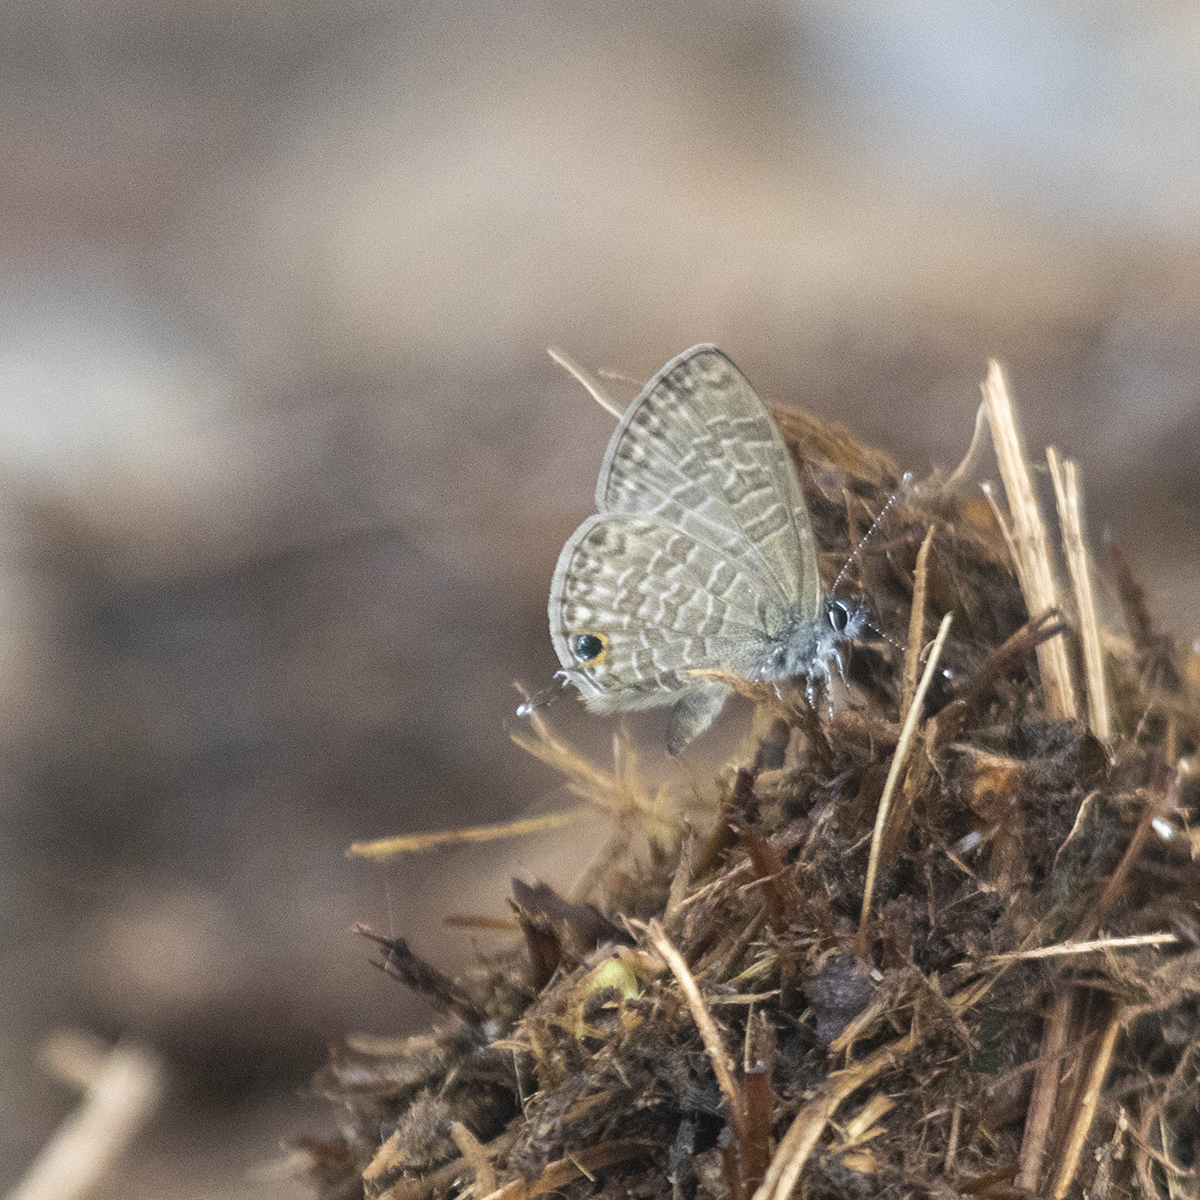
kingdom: Animalia
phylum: Arthropoda
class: Insecta
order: Lepidoptera
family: Lycaenidae
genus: Prosotas
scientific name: Prosotas nora
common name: Common line blue
